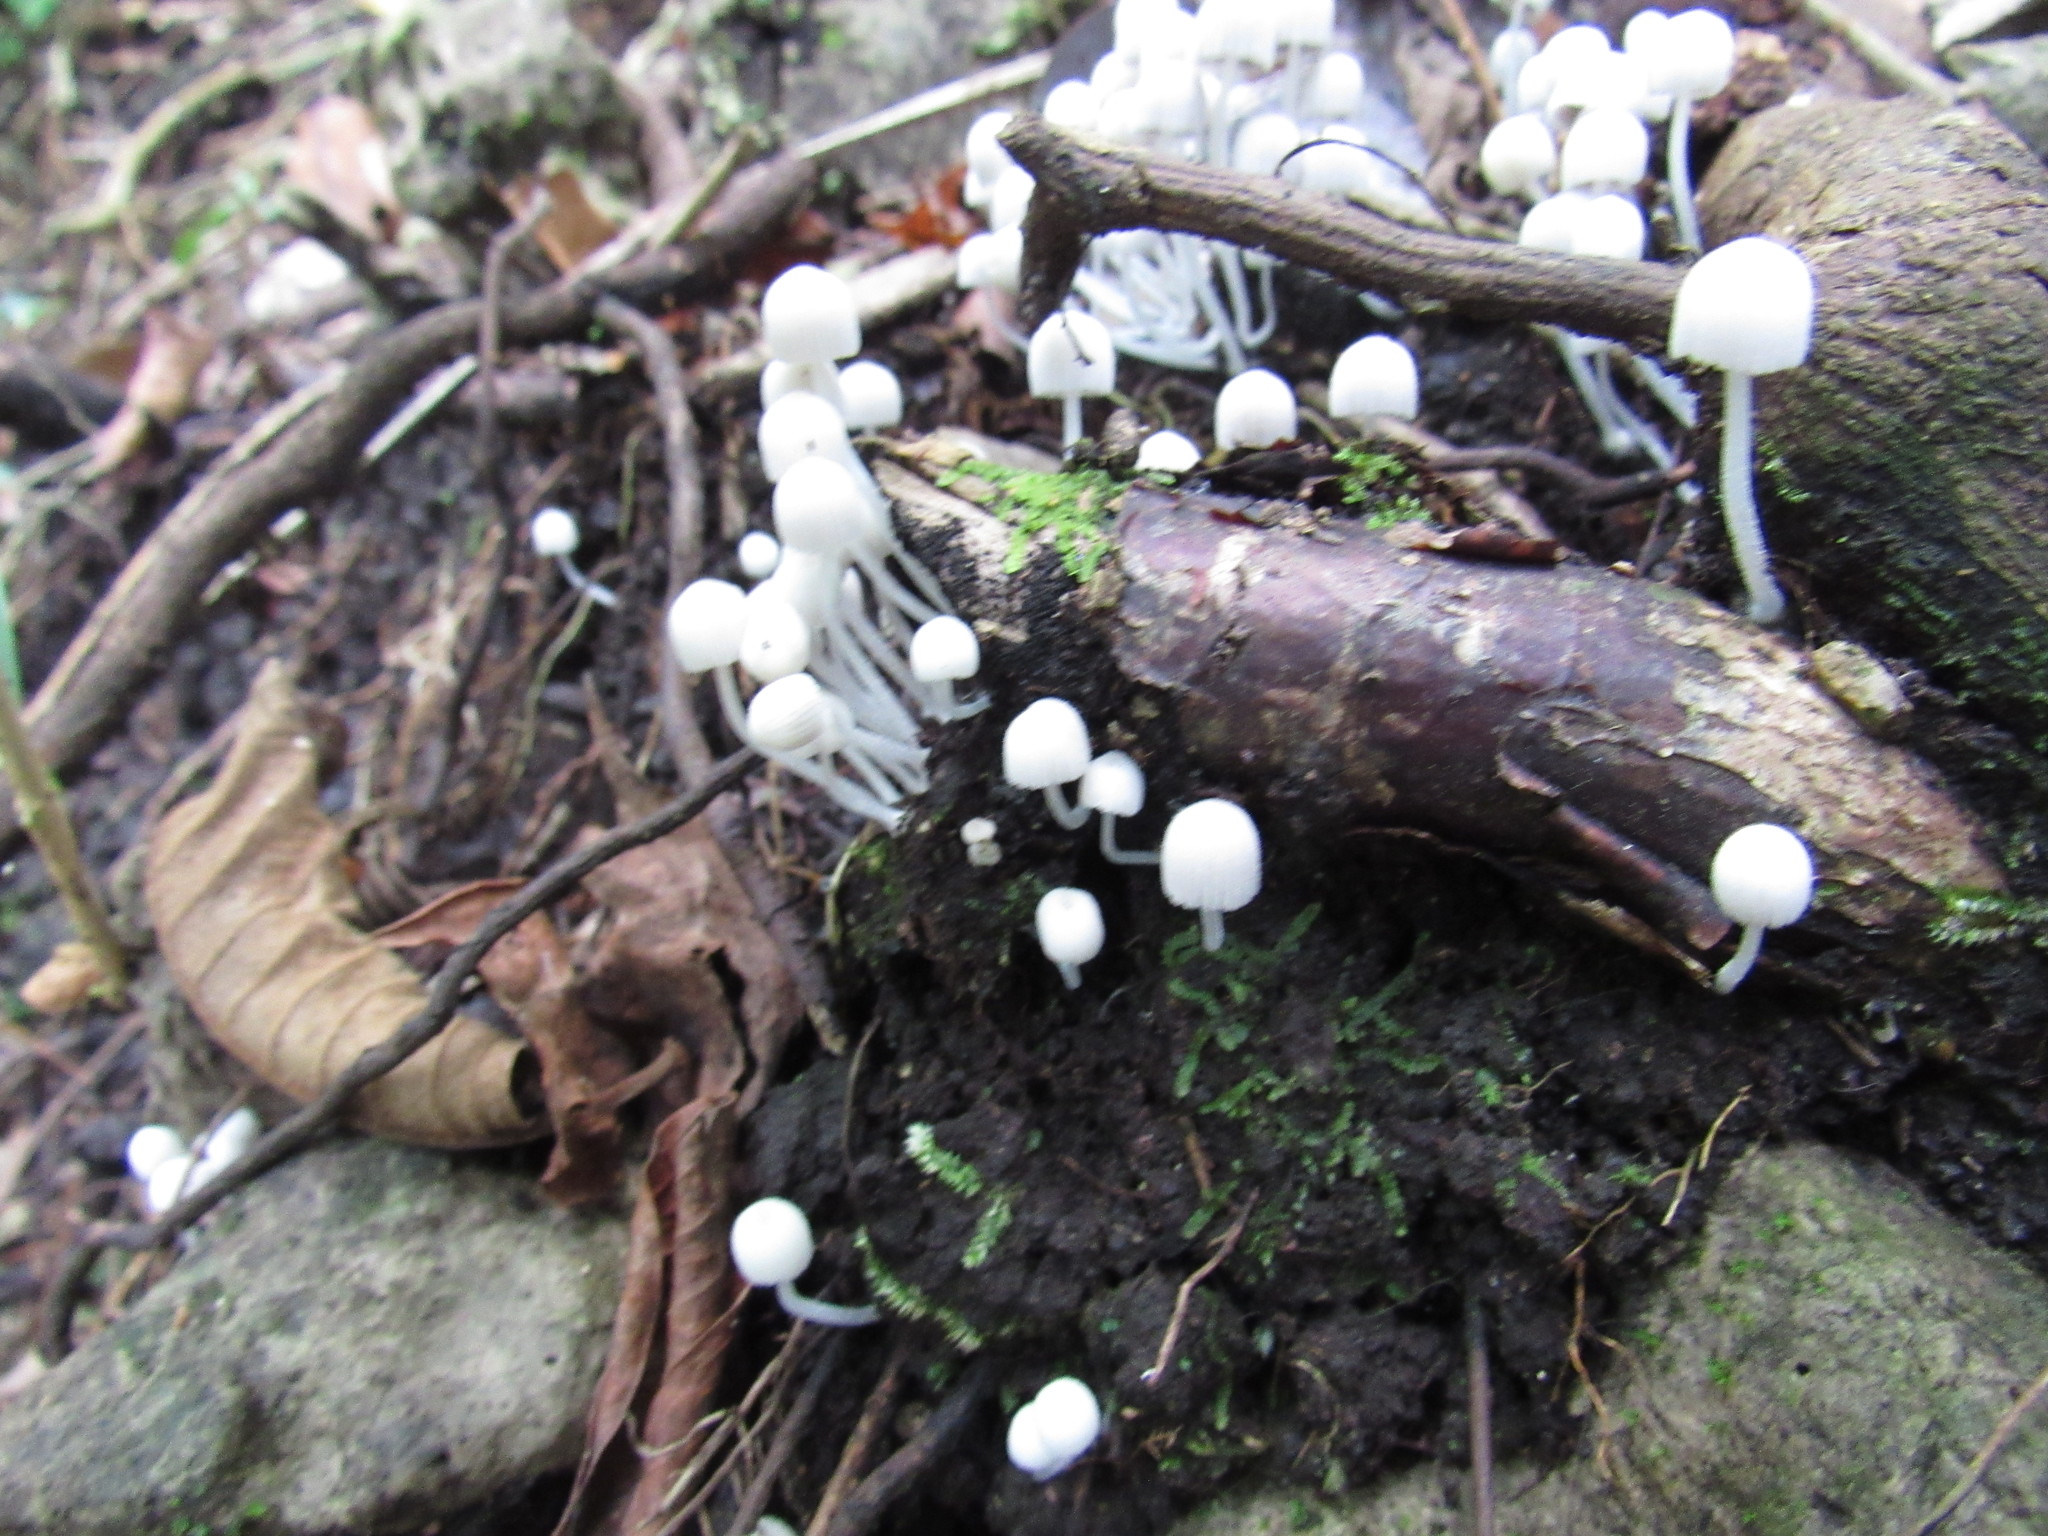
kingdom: Fungi
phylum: Basidiomycota
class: Agaricomycetes
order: Agaricales
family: Psathyrellaceae
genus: Coprinellus
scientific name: Coprinellus disseminatus
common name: Fairies' bonnets
